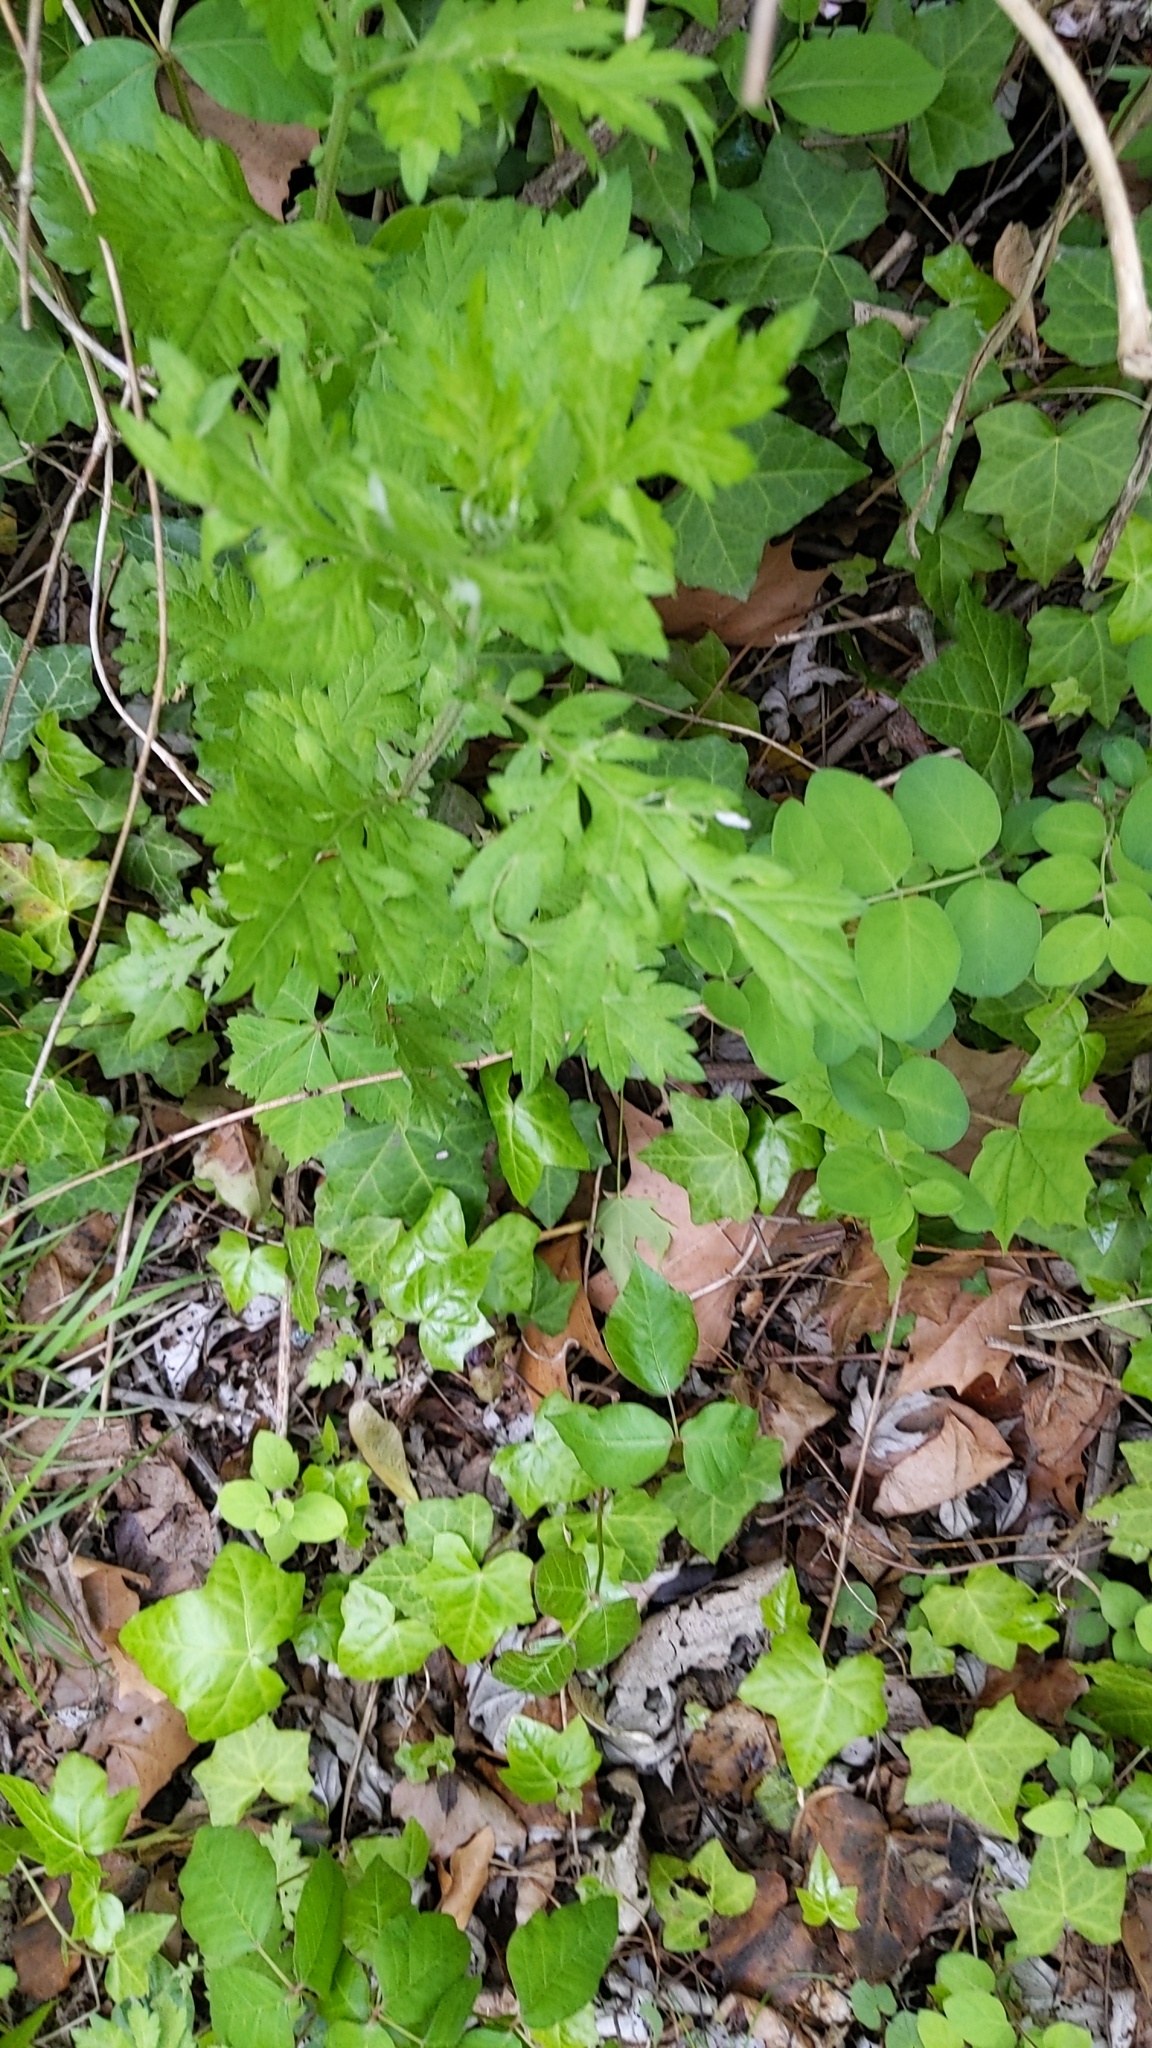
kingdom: Plantae
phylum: Tracheophyta
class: Magnoliopsida
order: Asterales
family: Asteraceae
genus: Artemisia
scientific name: Artemisia vulgaris
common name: Mugwort
